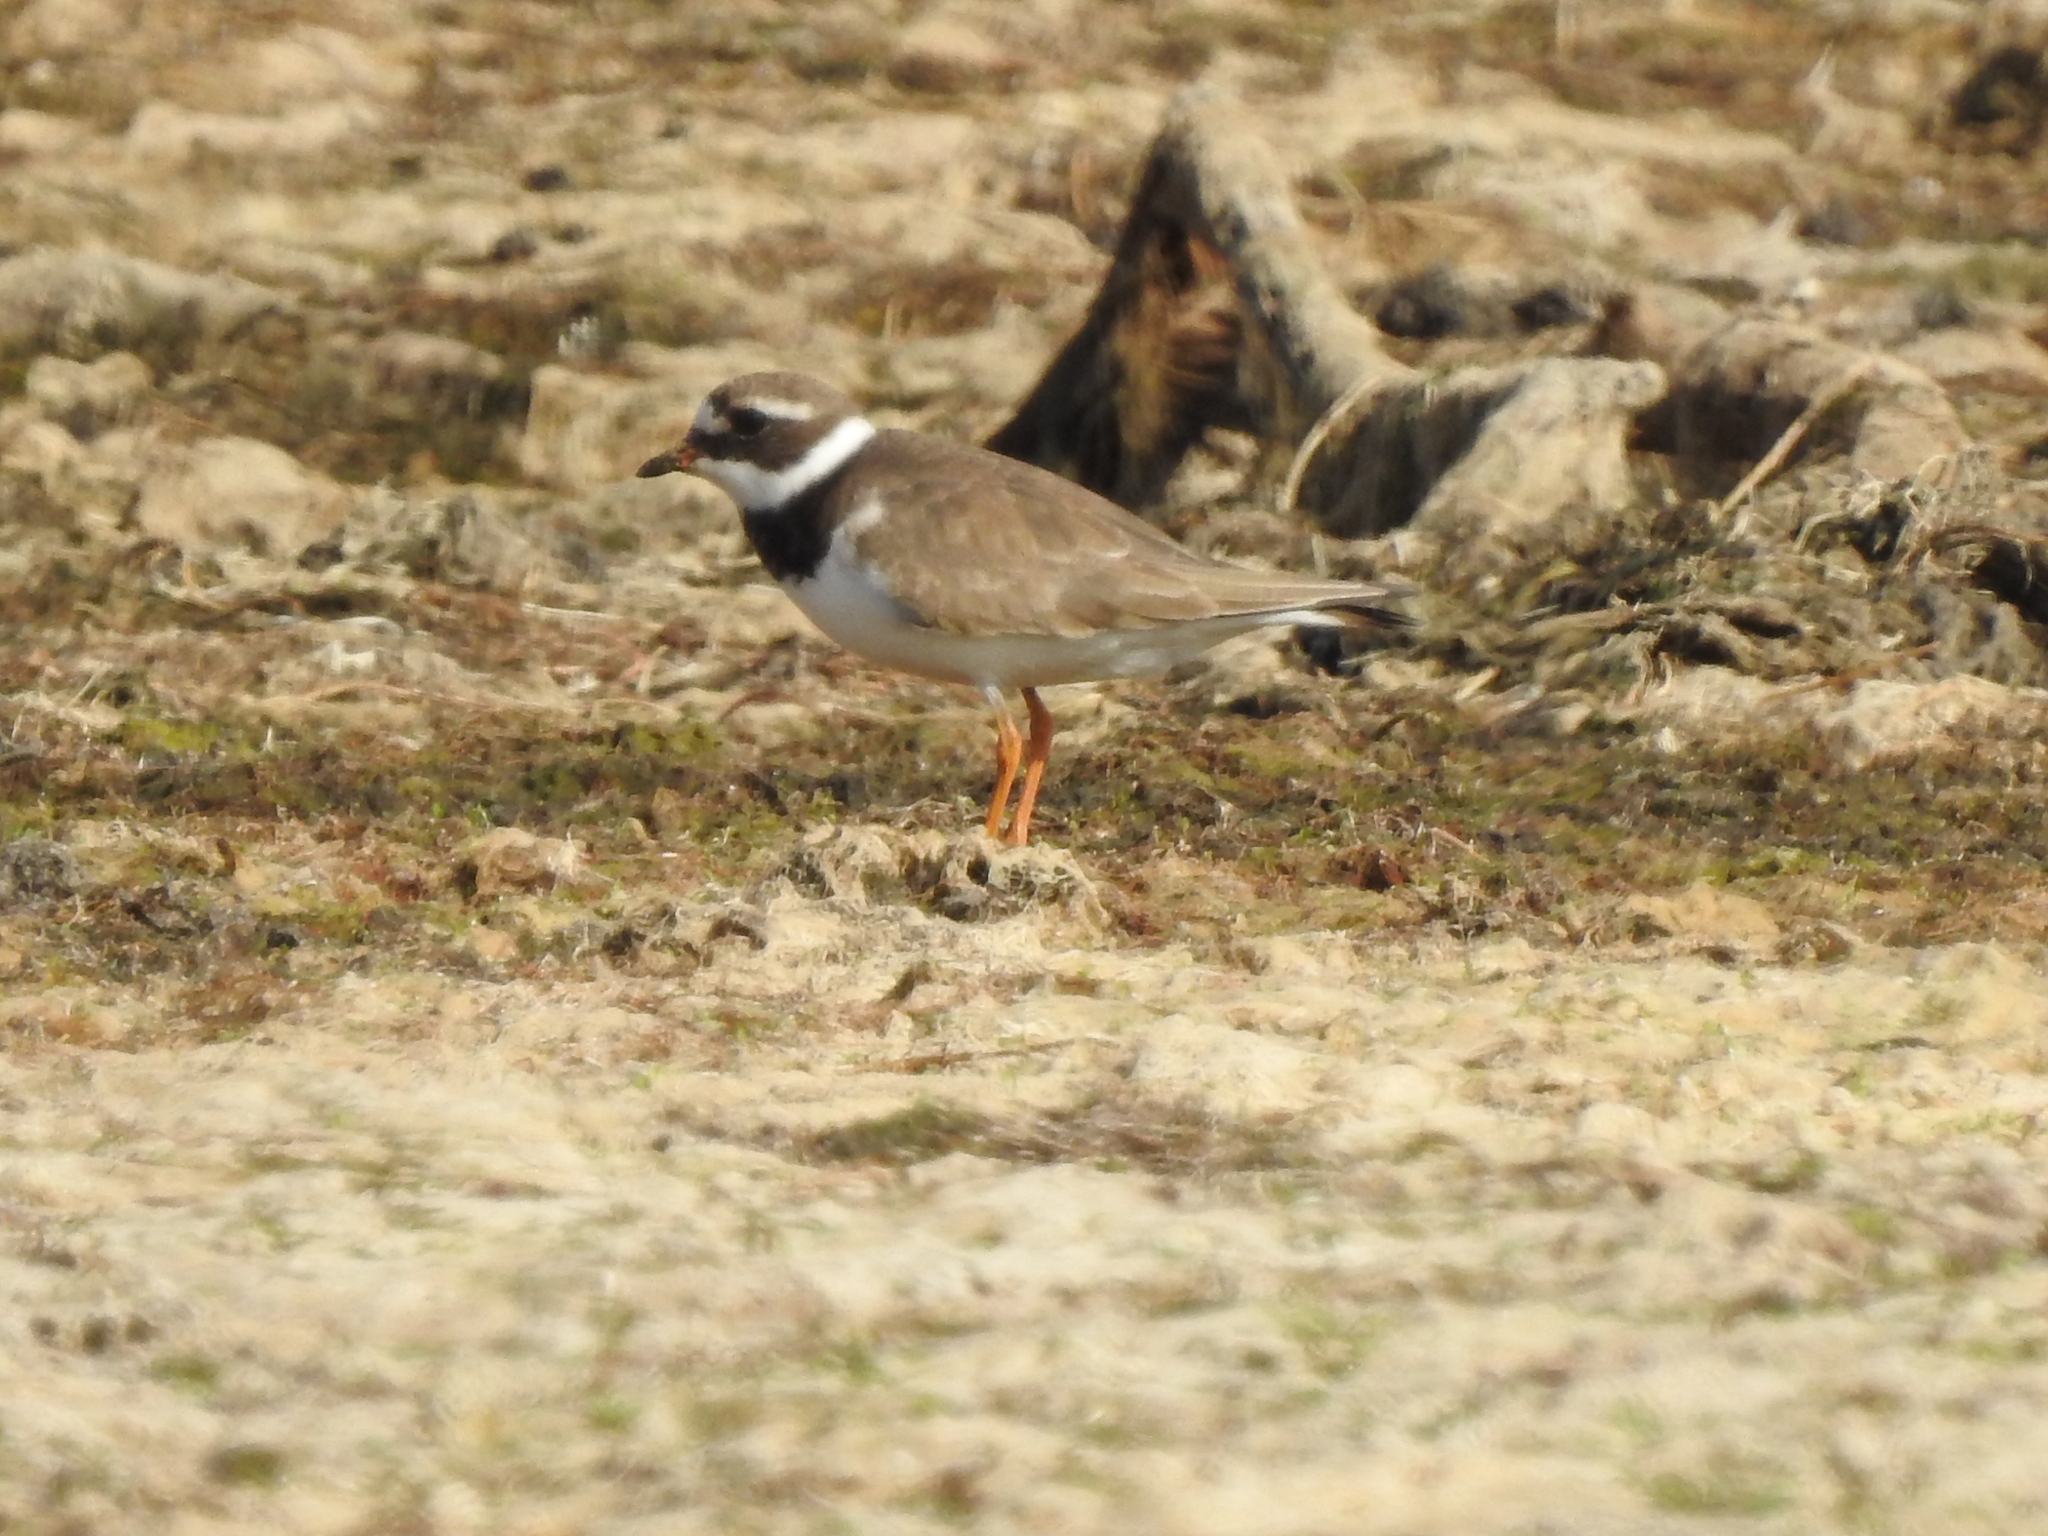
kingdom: Animalia
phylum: Chordata
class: Aves
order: Charadriiformes
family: Charadriidae
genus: Charadrius
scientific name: Charadrius hiaticula
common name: Common ringed plover
